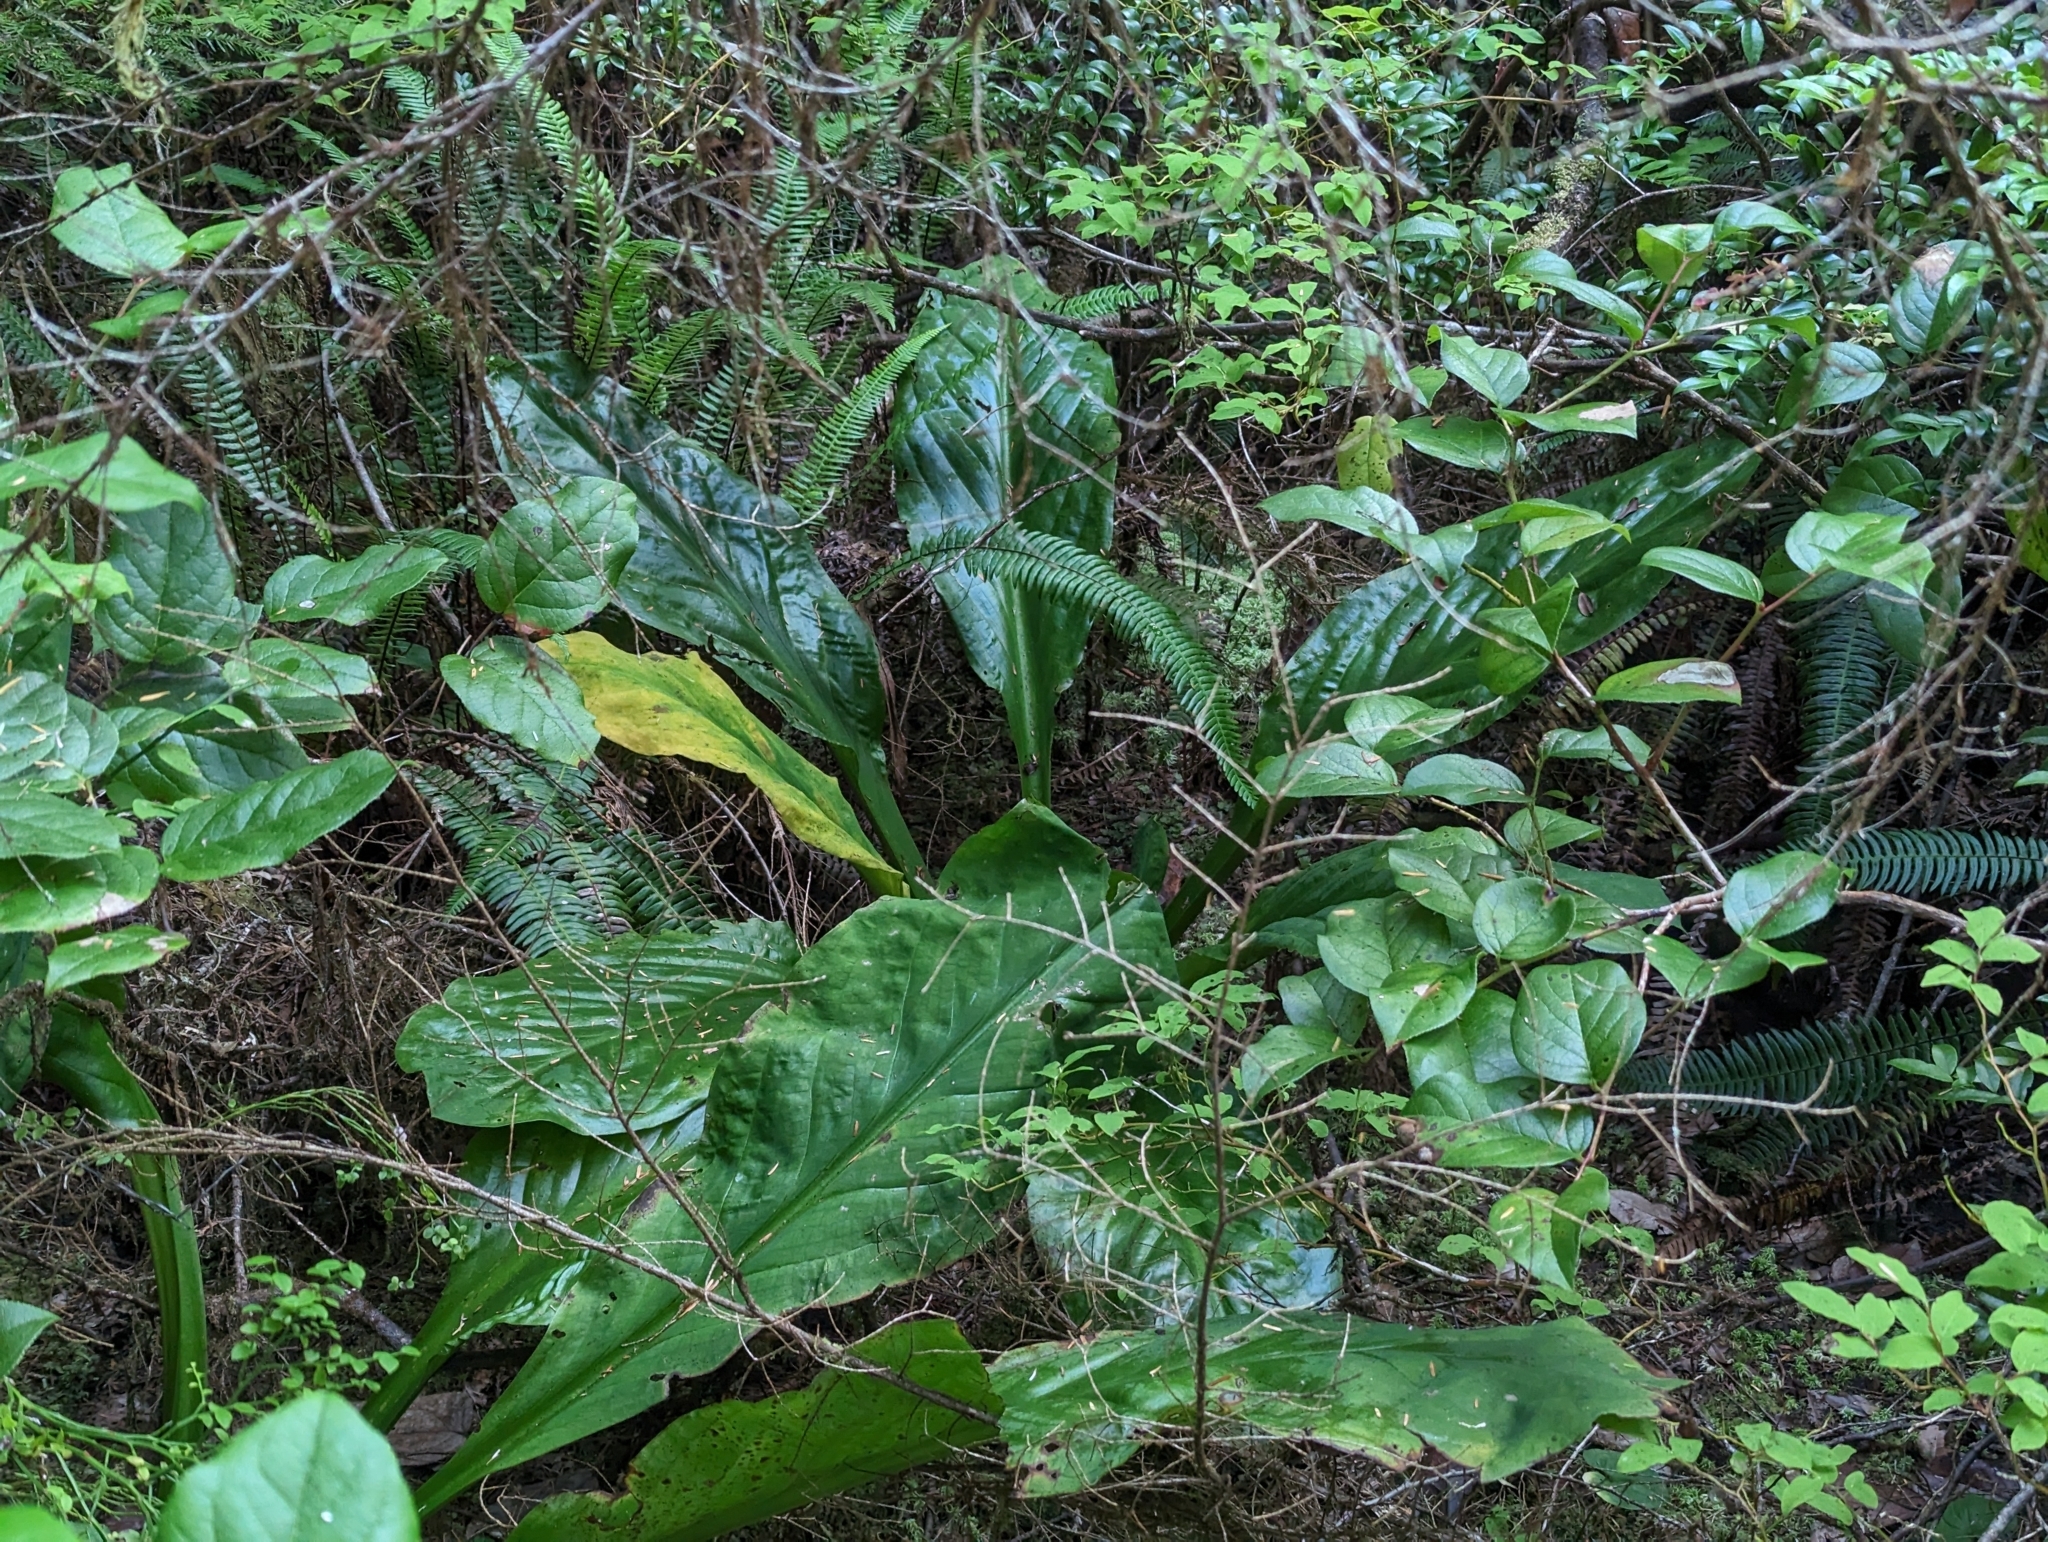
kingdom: Plantae
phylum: Tracheophyta
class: Liliopsida
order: Alismatales
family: Araceae
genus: Lysichiton
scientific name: Lysichiton americanus
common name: American skunk cabbage
